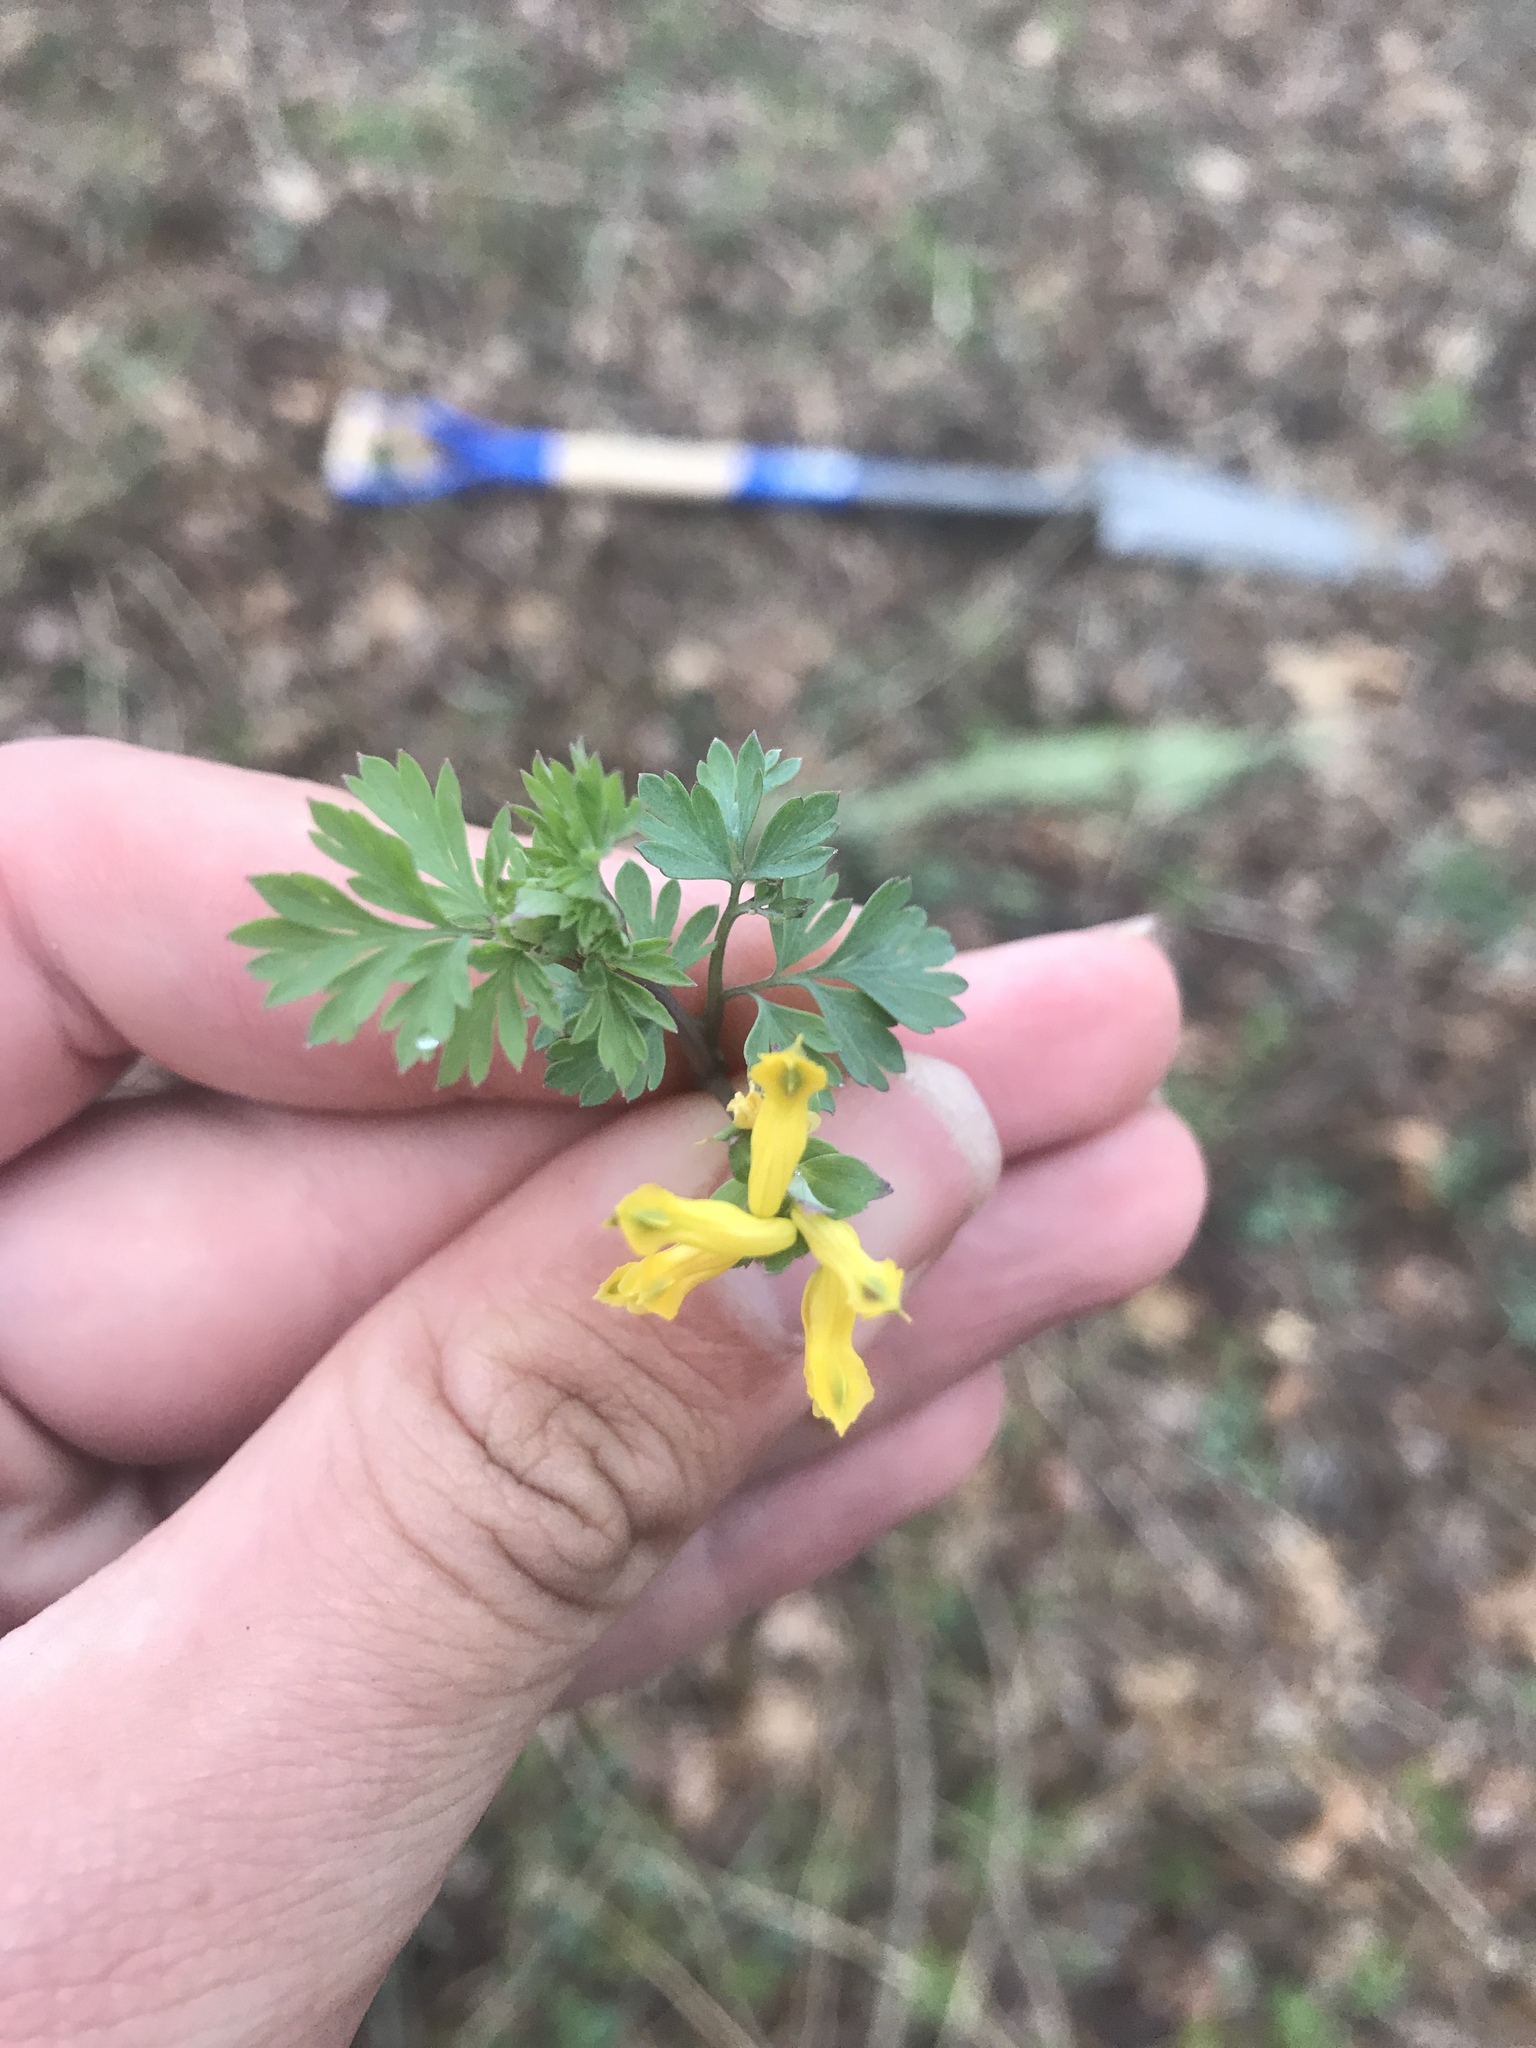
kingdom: Plantae
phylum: Tracheophyta
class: Magnoliopsida
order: Ranunculales
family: Papaveraceae
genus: Corydalis
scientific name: Corydalis flavula
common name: Yellow corydalis
